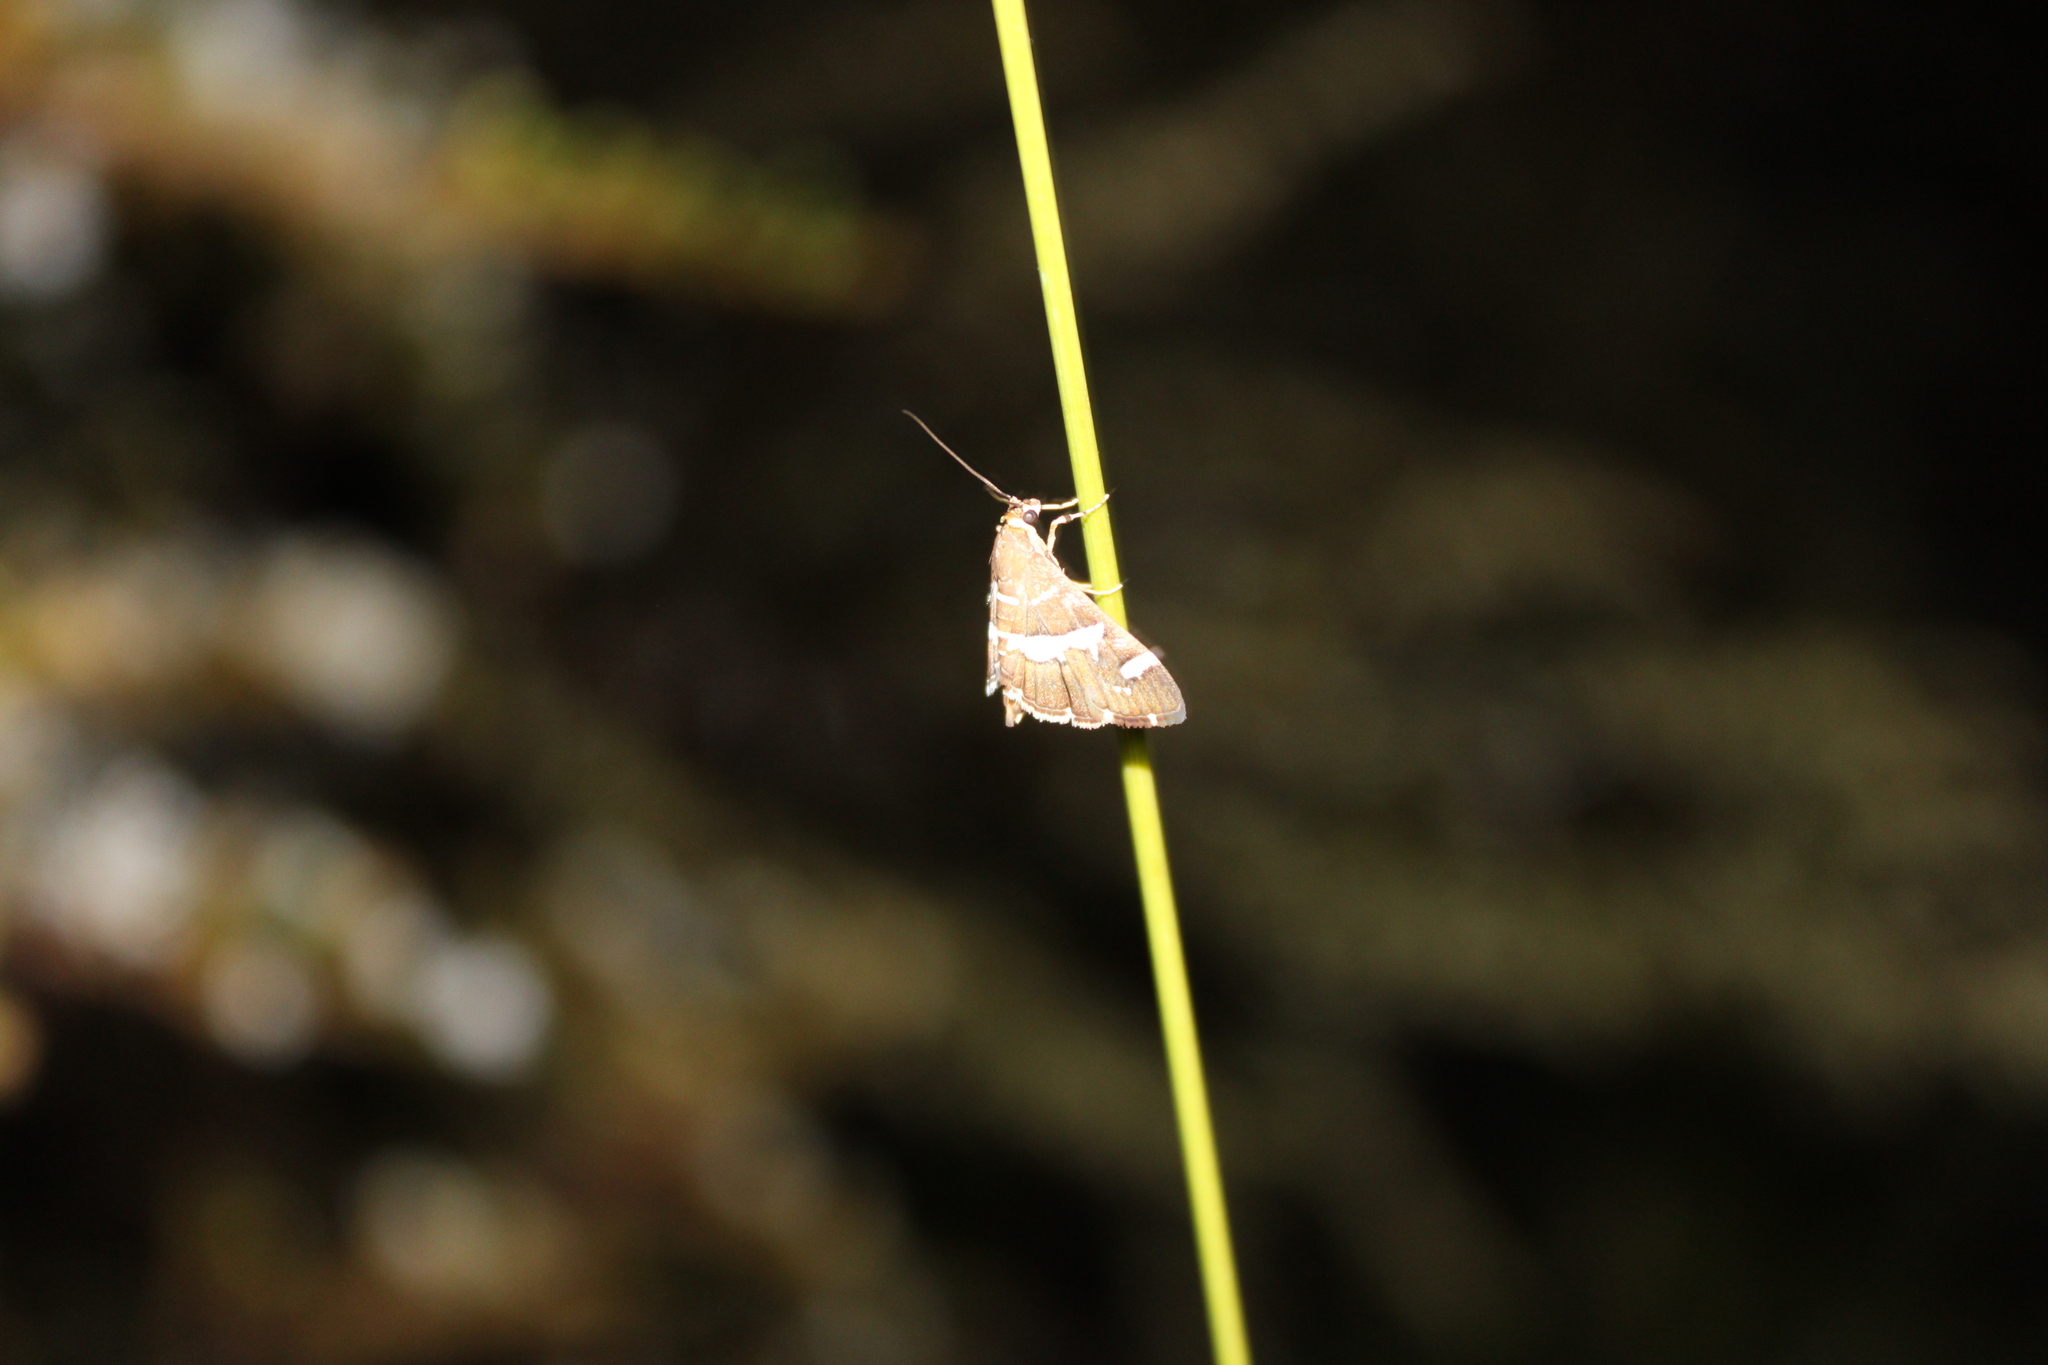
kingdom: Animalia
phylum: Arthropoda
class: Insecta
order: Lepidoptera
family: Crambidae
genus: Spoladea
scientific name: Spoladea recurvalis
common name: Beet webworm moth
